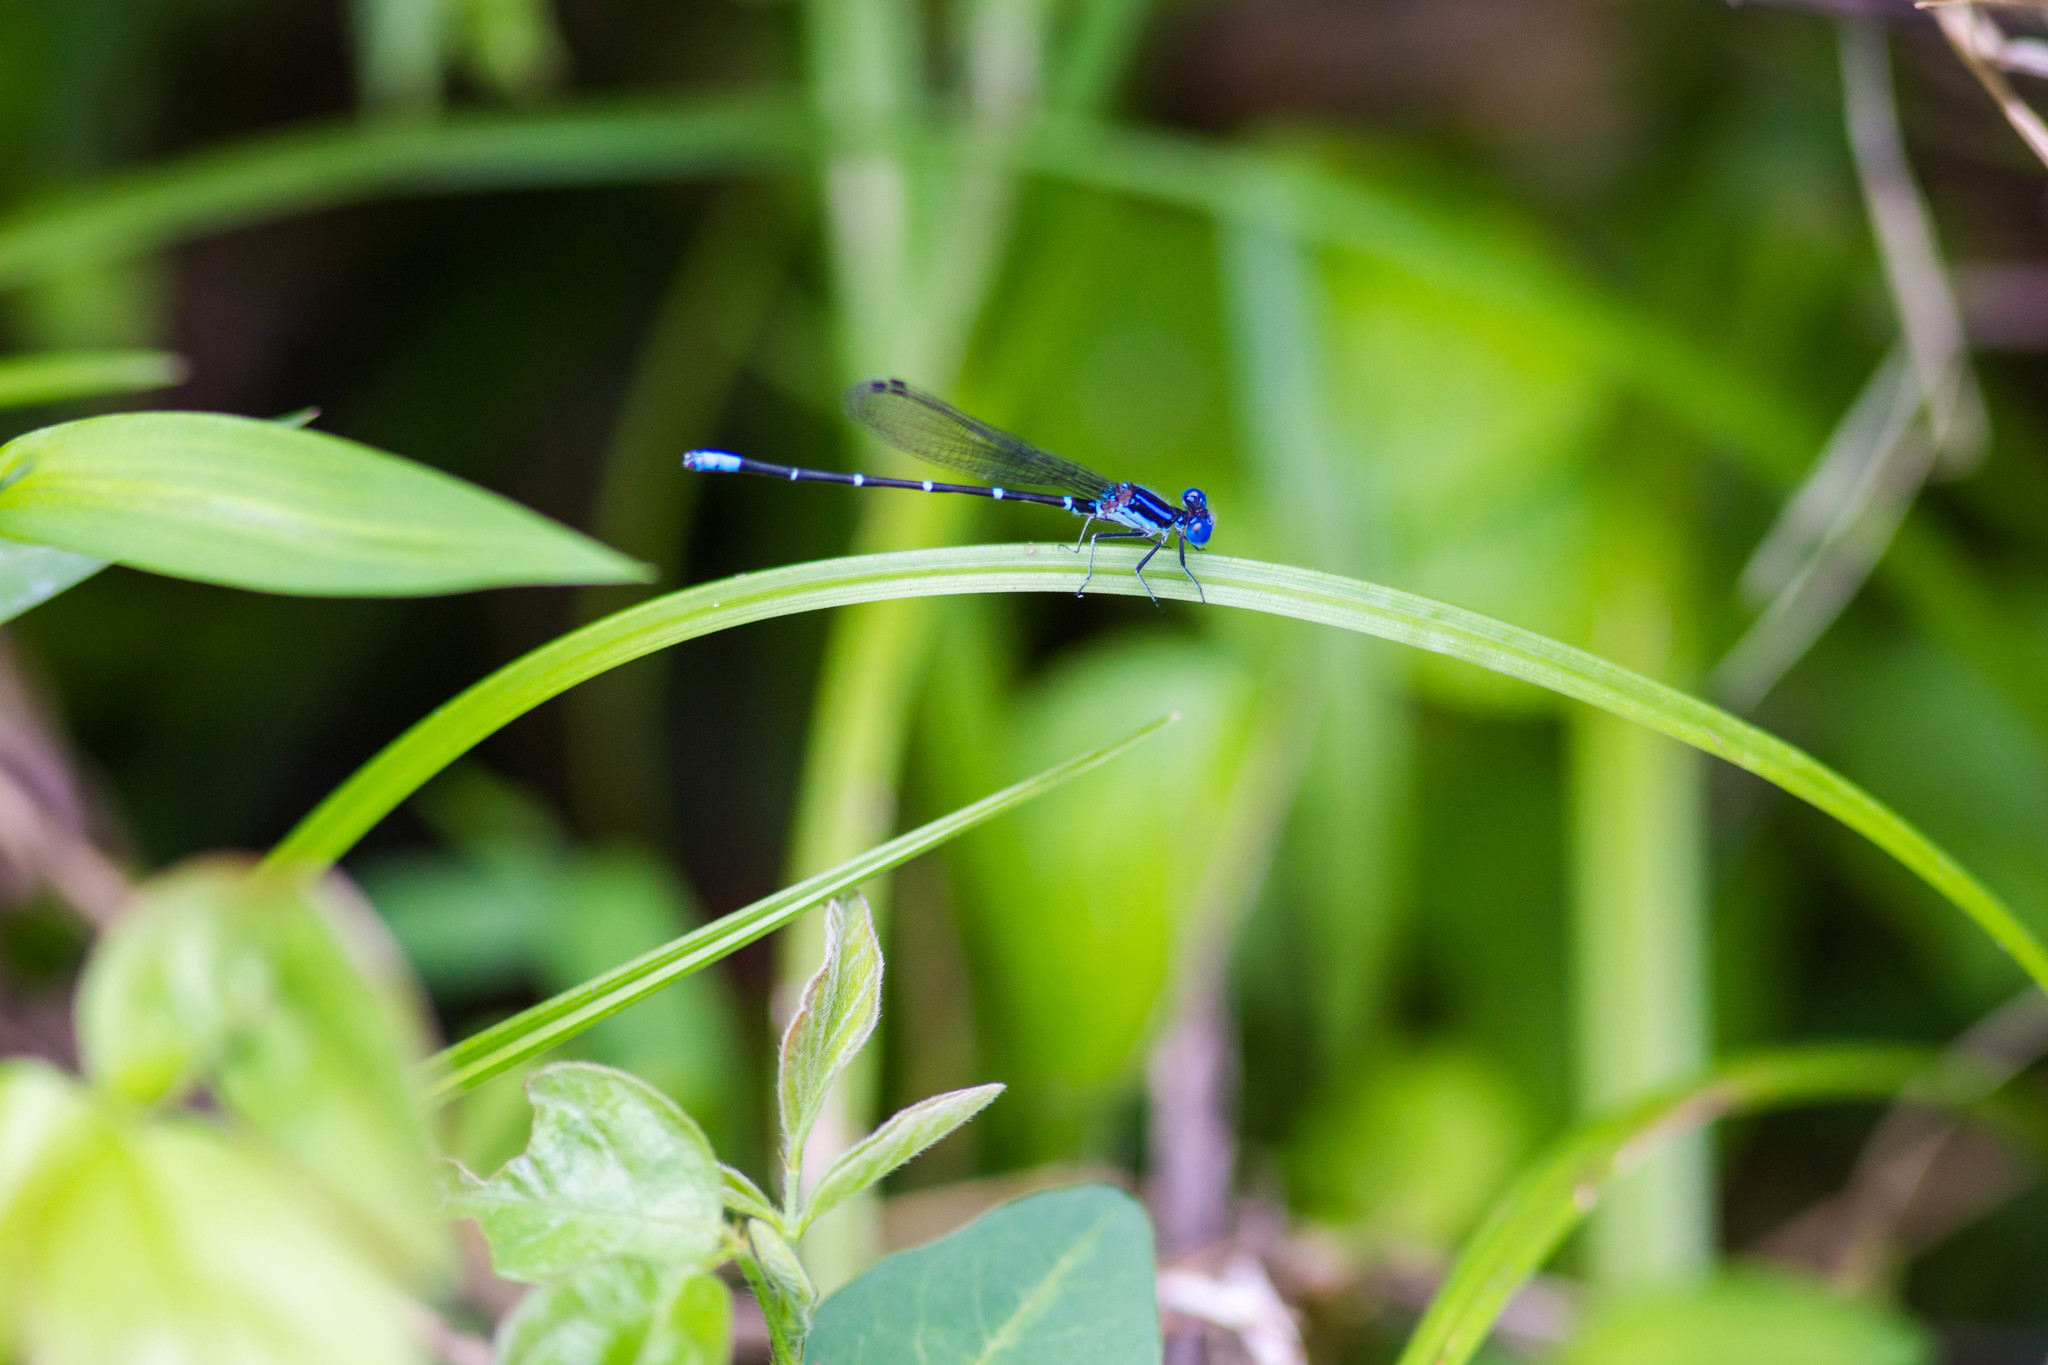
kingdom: Animalia
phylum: Arthropoda
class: Insecta
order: Odonata
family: Coenagrionidae
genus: Argia
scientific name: Argia sedula
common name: Blue-ringed dancer
